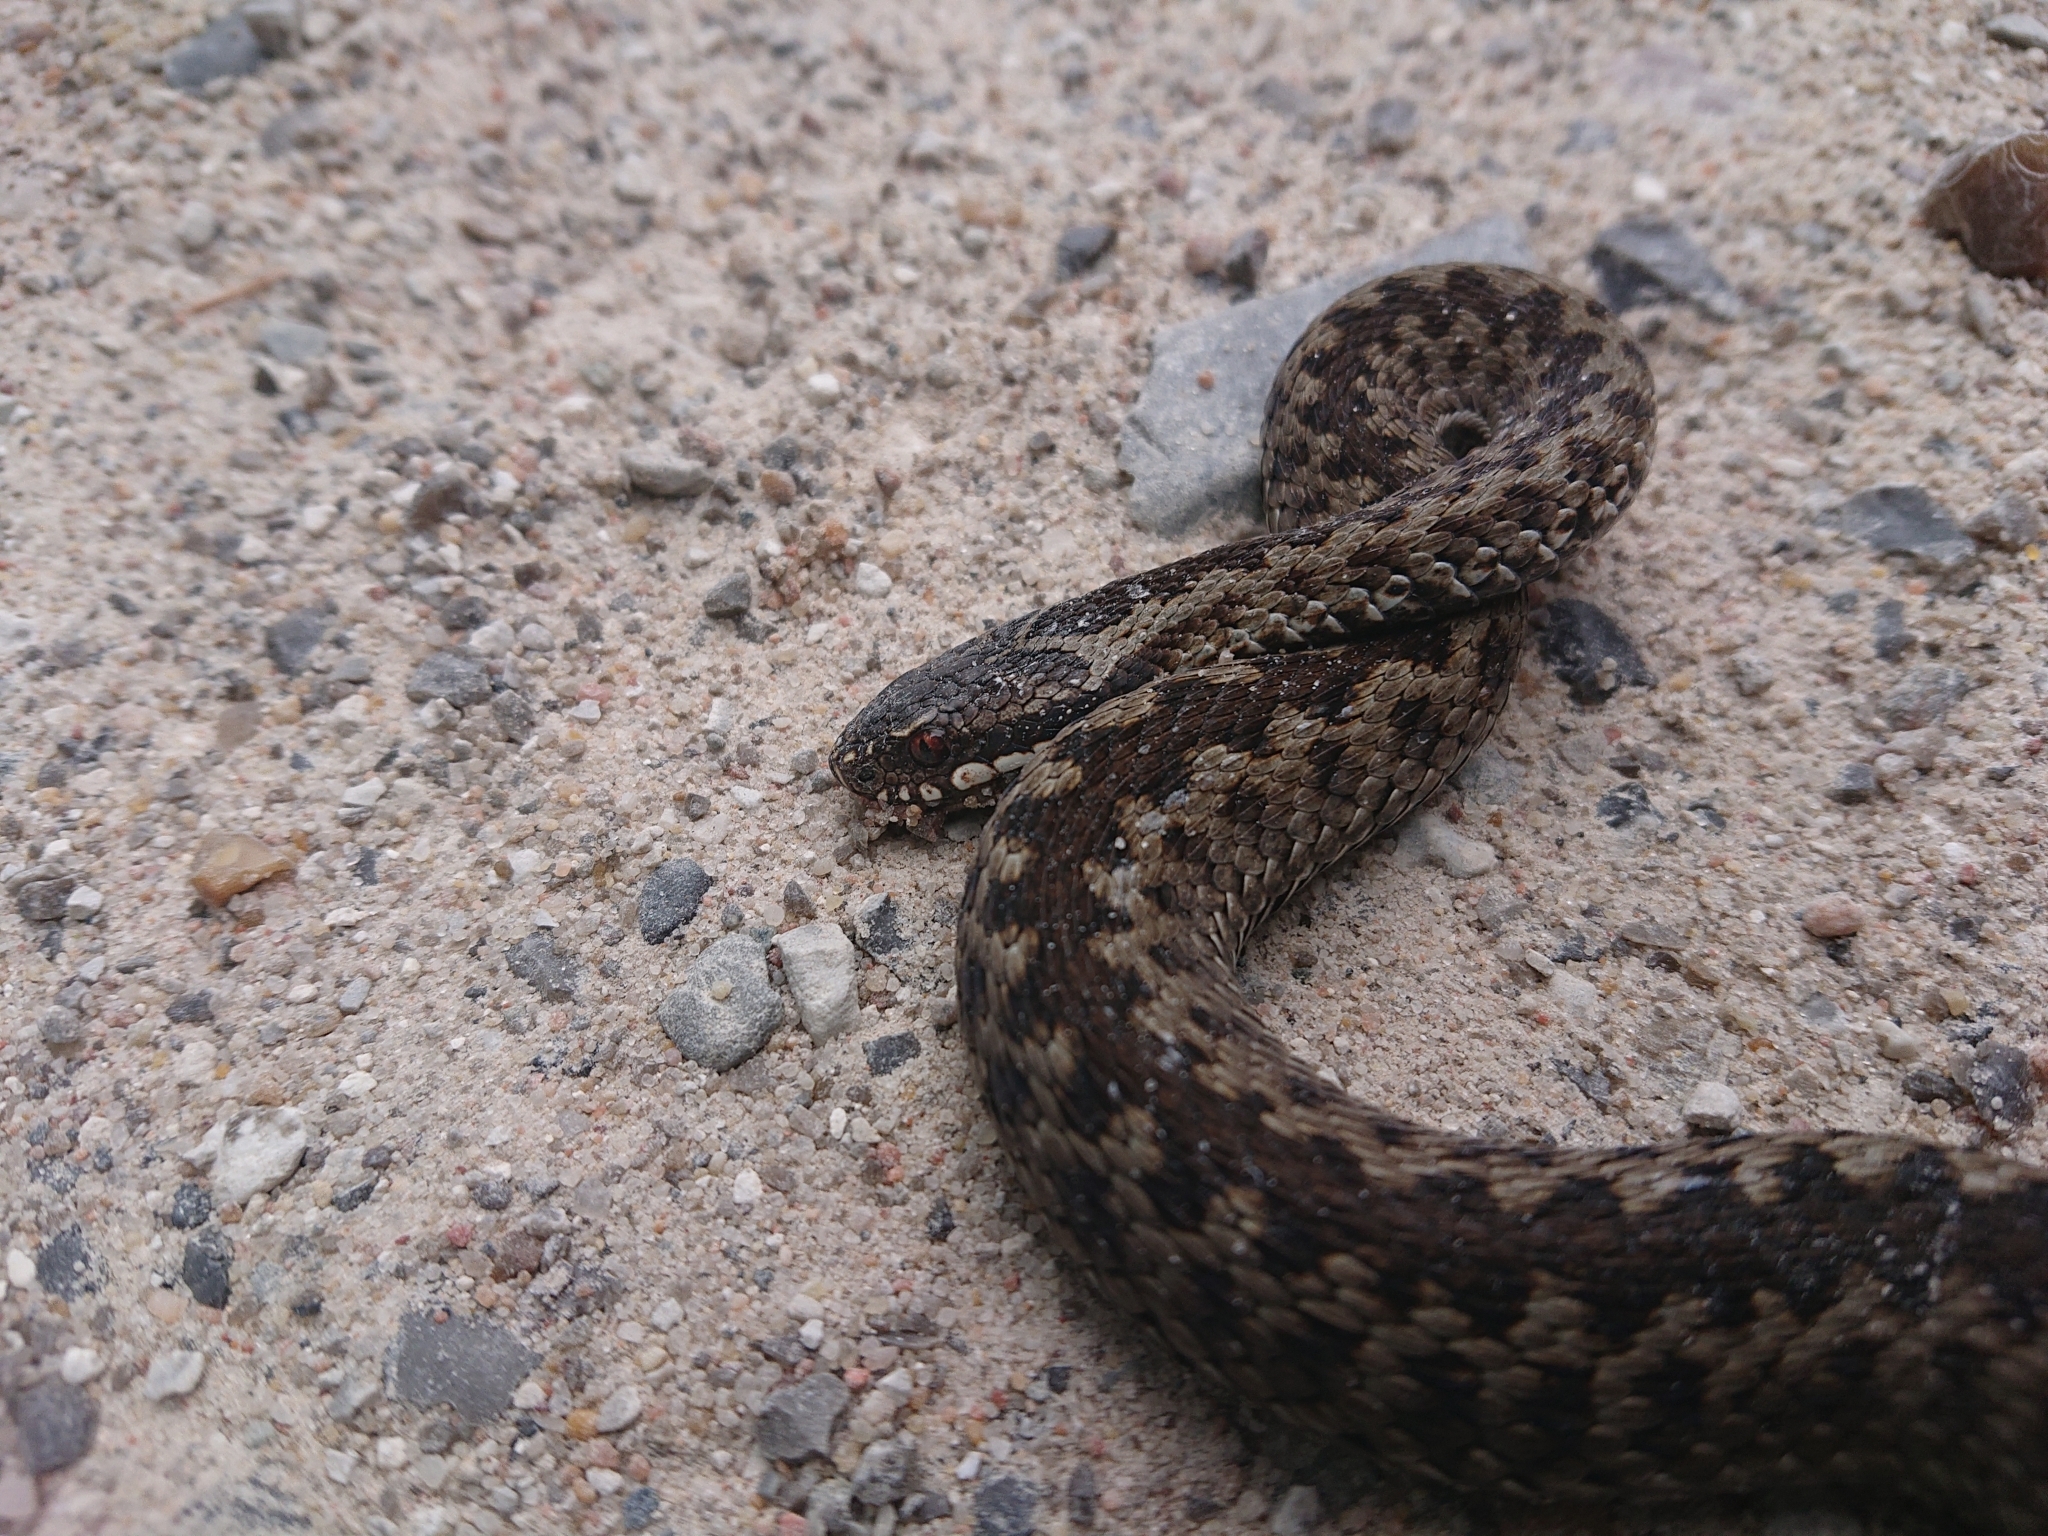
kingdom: Animalia
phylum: Chordata
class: Squamata
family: Viperidae
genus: Vipera
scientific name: Vipera berus
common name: Adder
